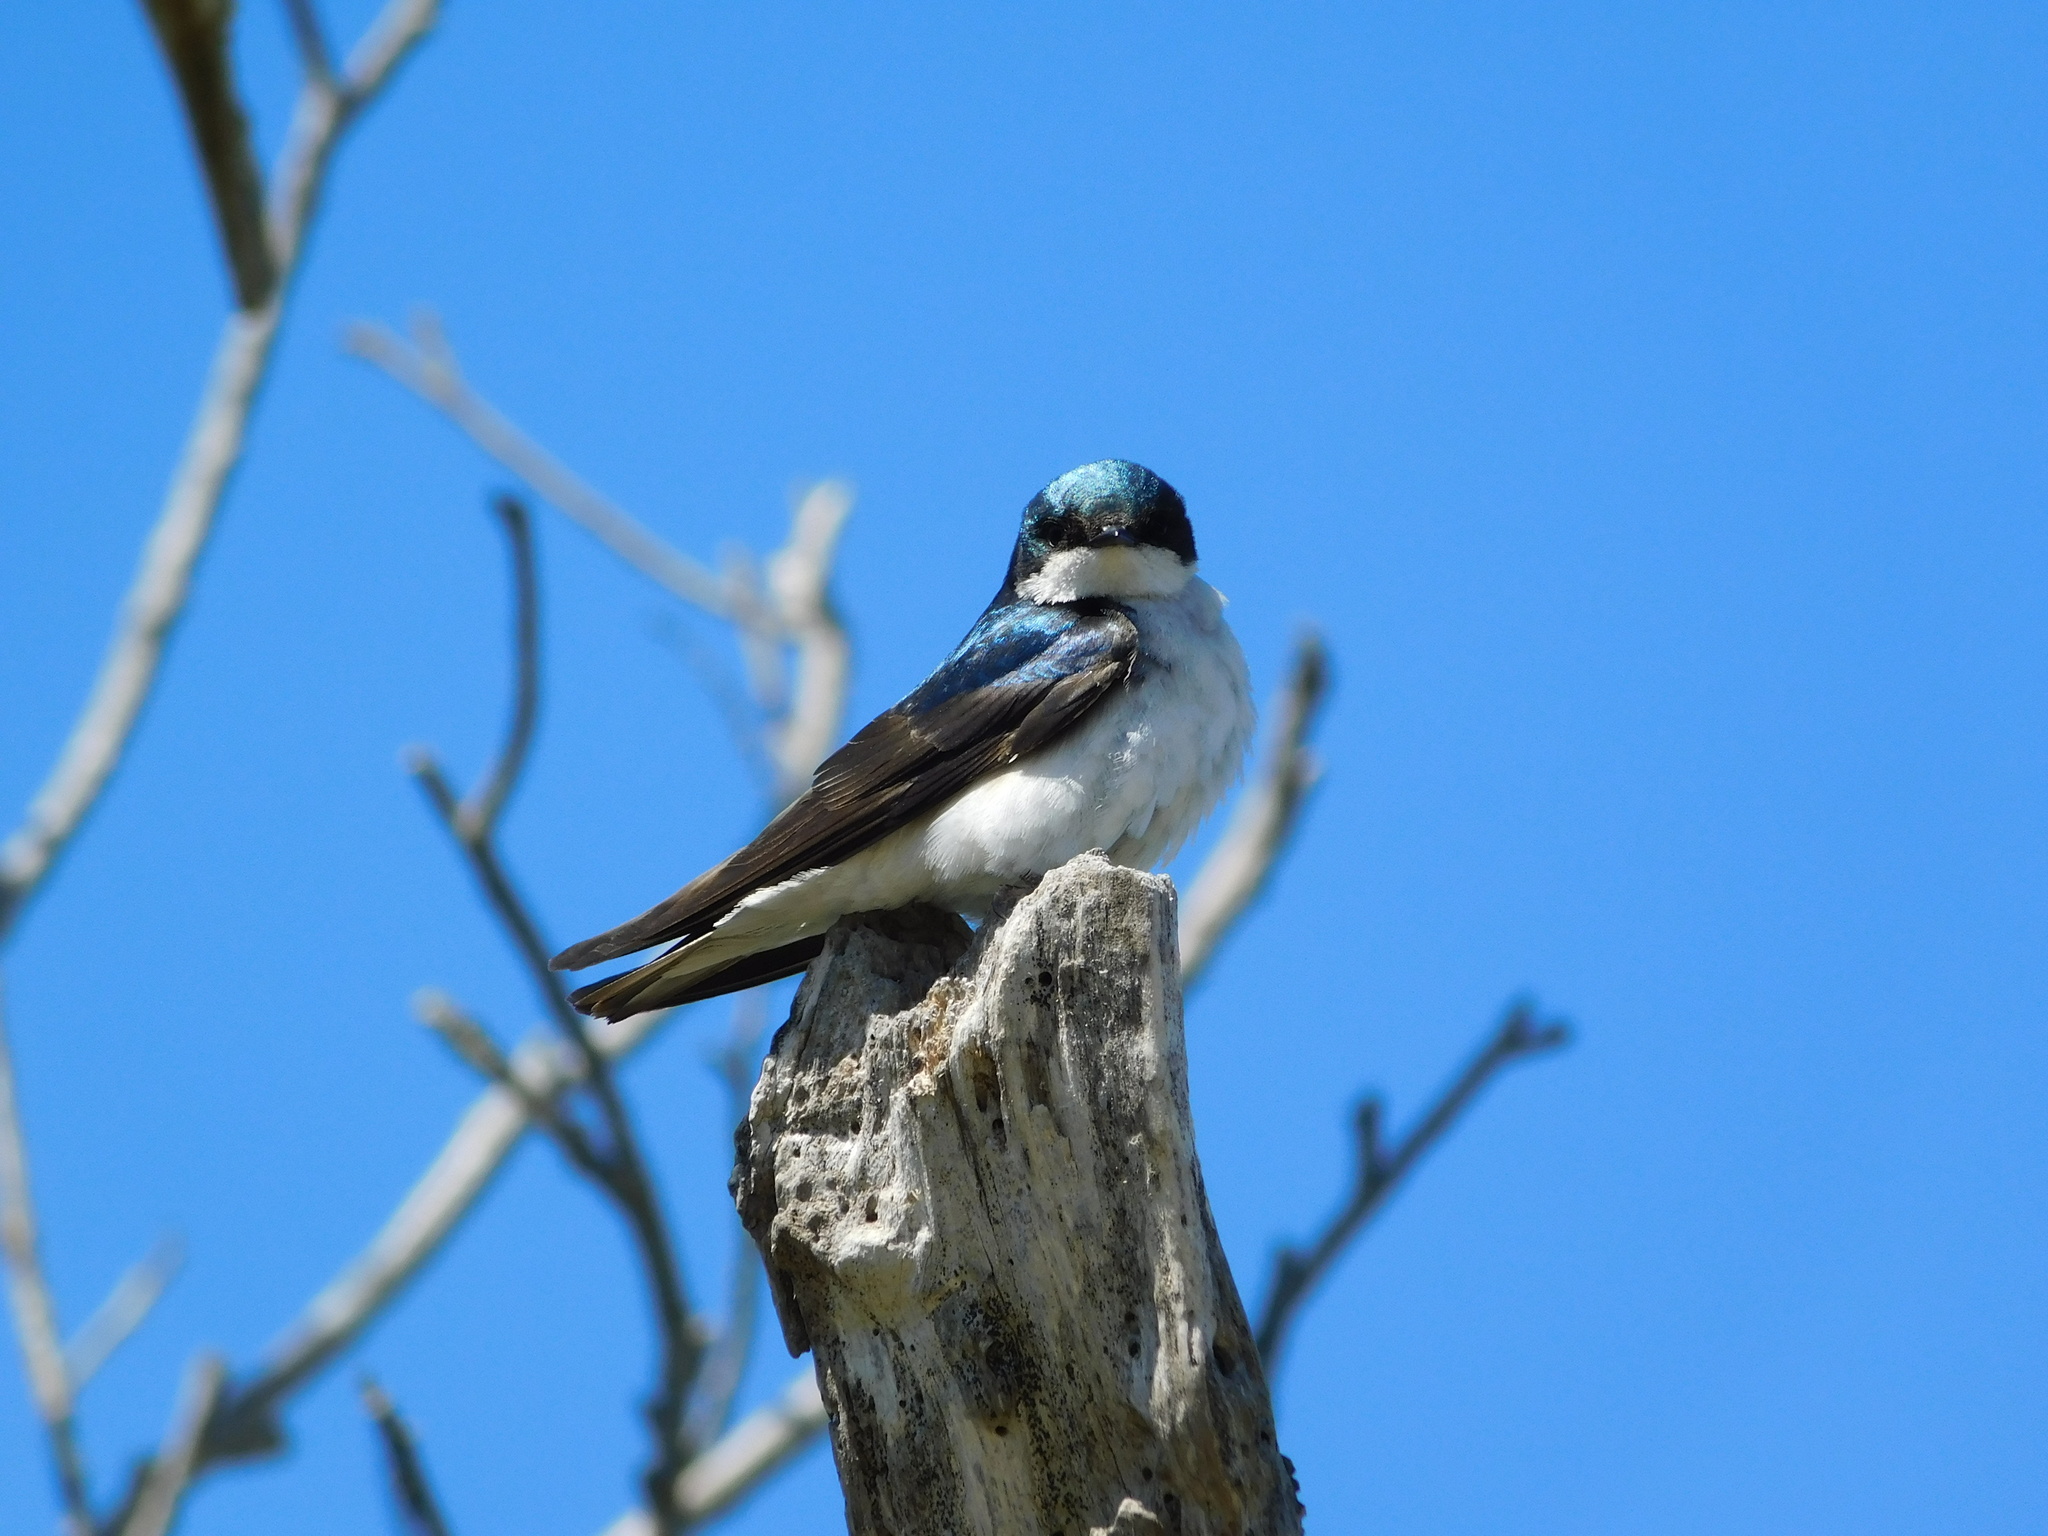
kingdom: Animalia
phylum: Chordata
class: Aves
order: Passeriformes
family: Hirundinidae
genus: Tachycineta
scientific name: Tachycineta bicolor
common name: Tree swallow
